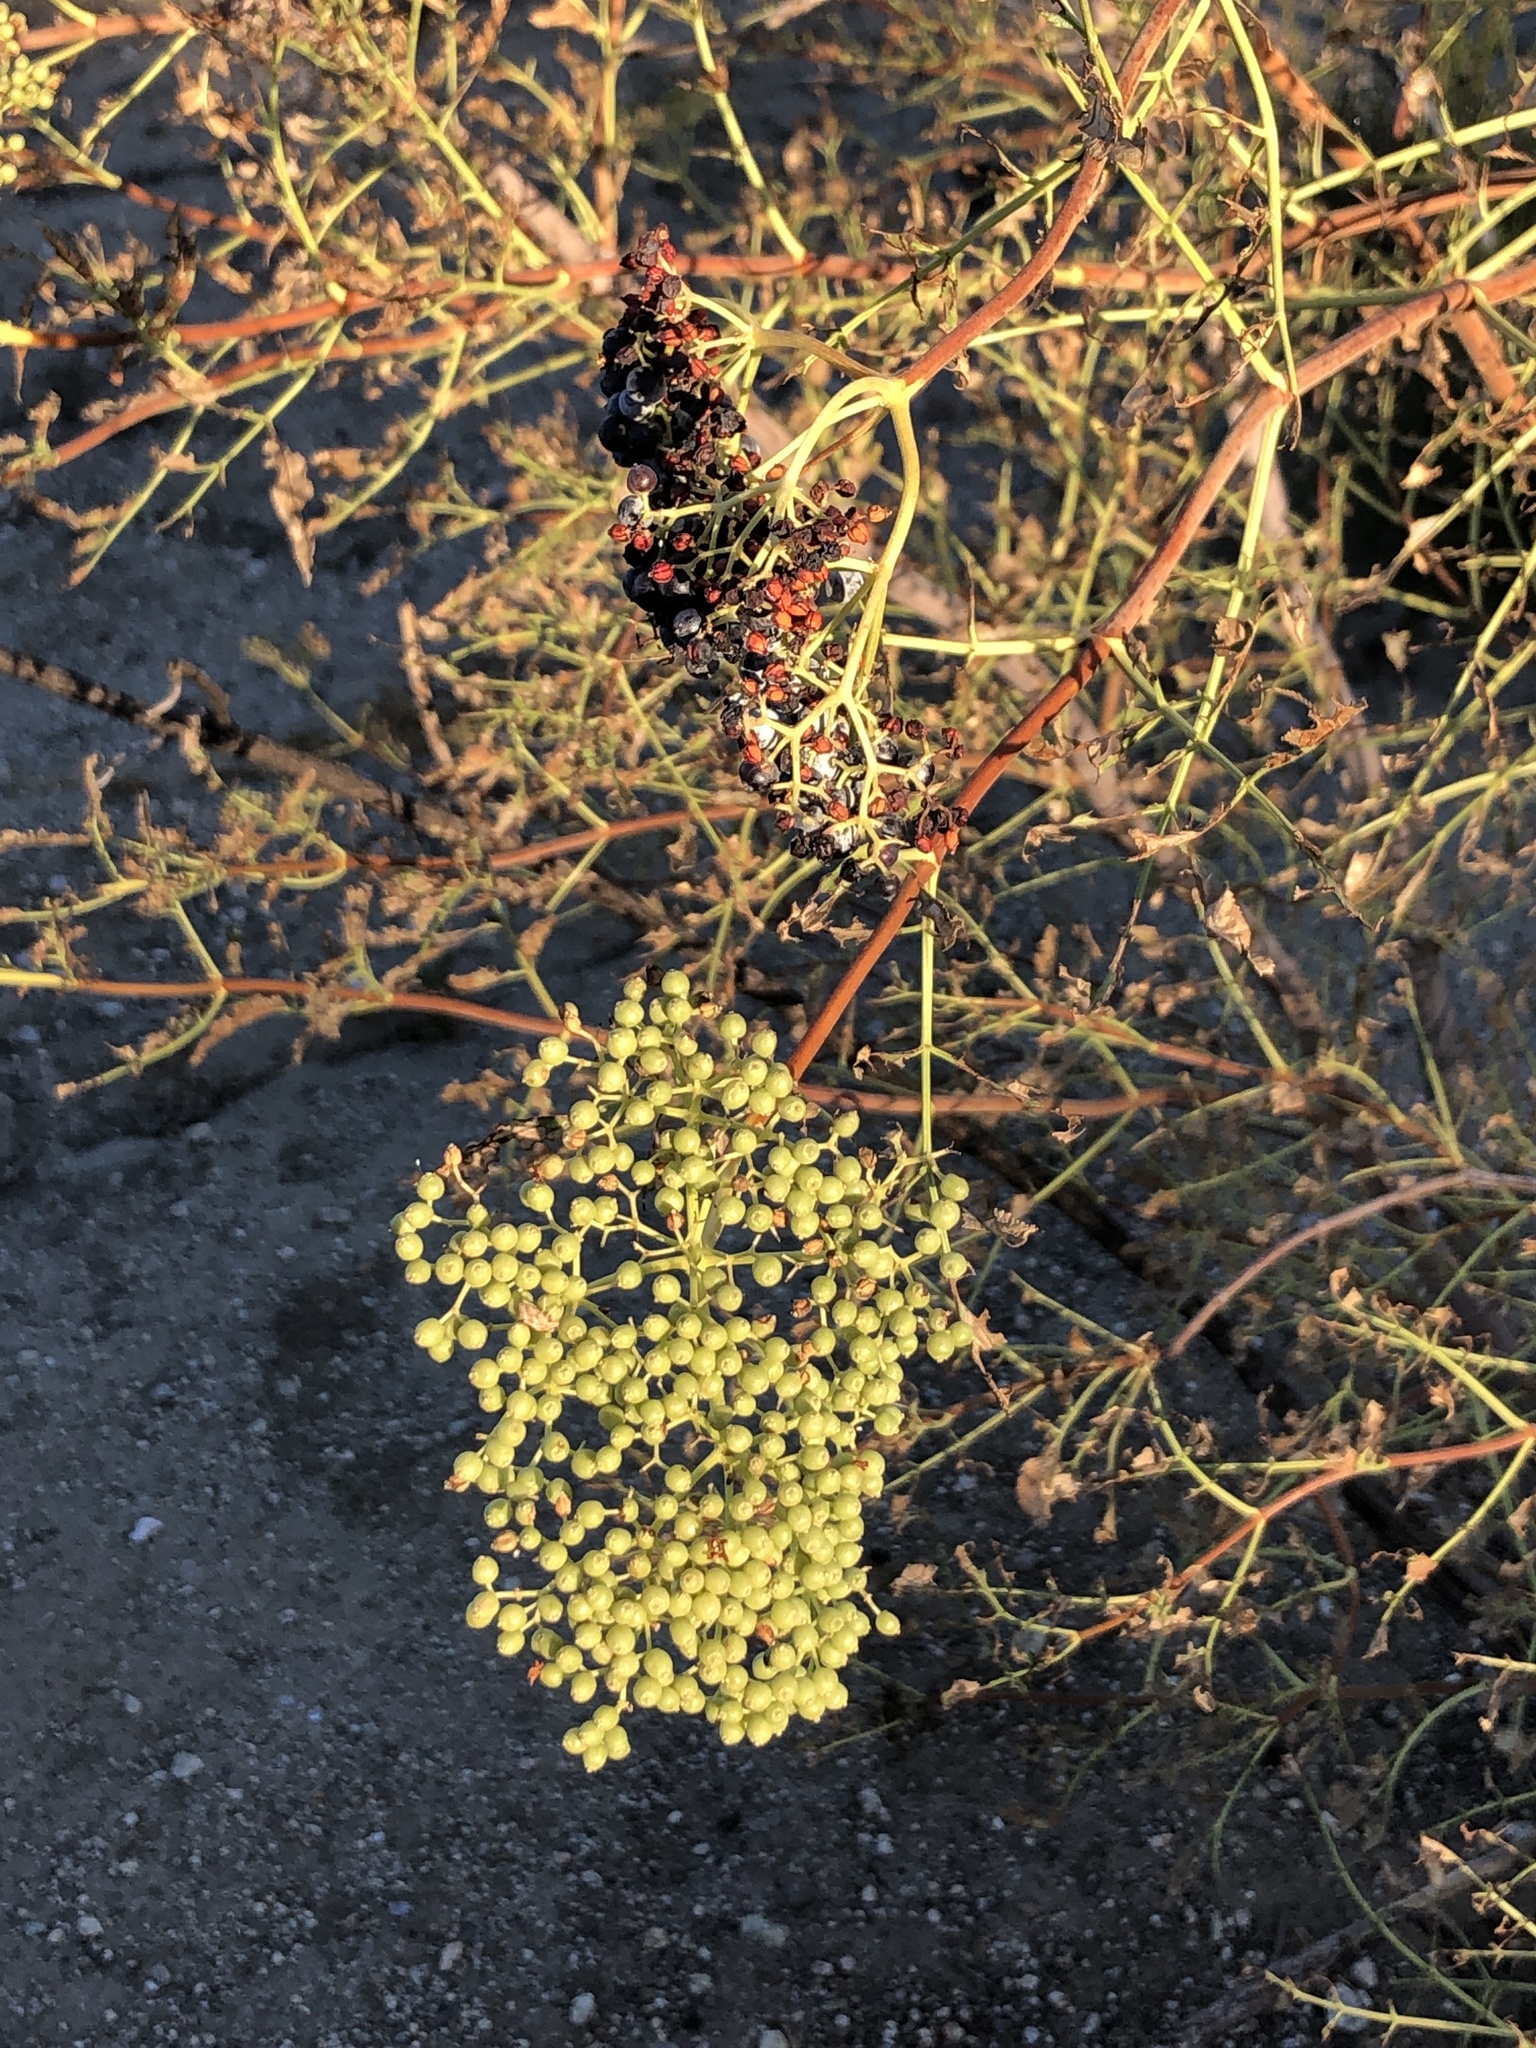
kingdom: Plantae
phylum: Tracheophyta
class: Magnoliopsida
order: Dipsacales
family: Viburnaceae
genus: Sambucus
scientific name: Sambucus cerulea
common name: Blue elder
